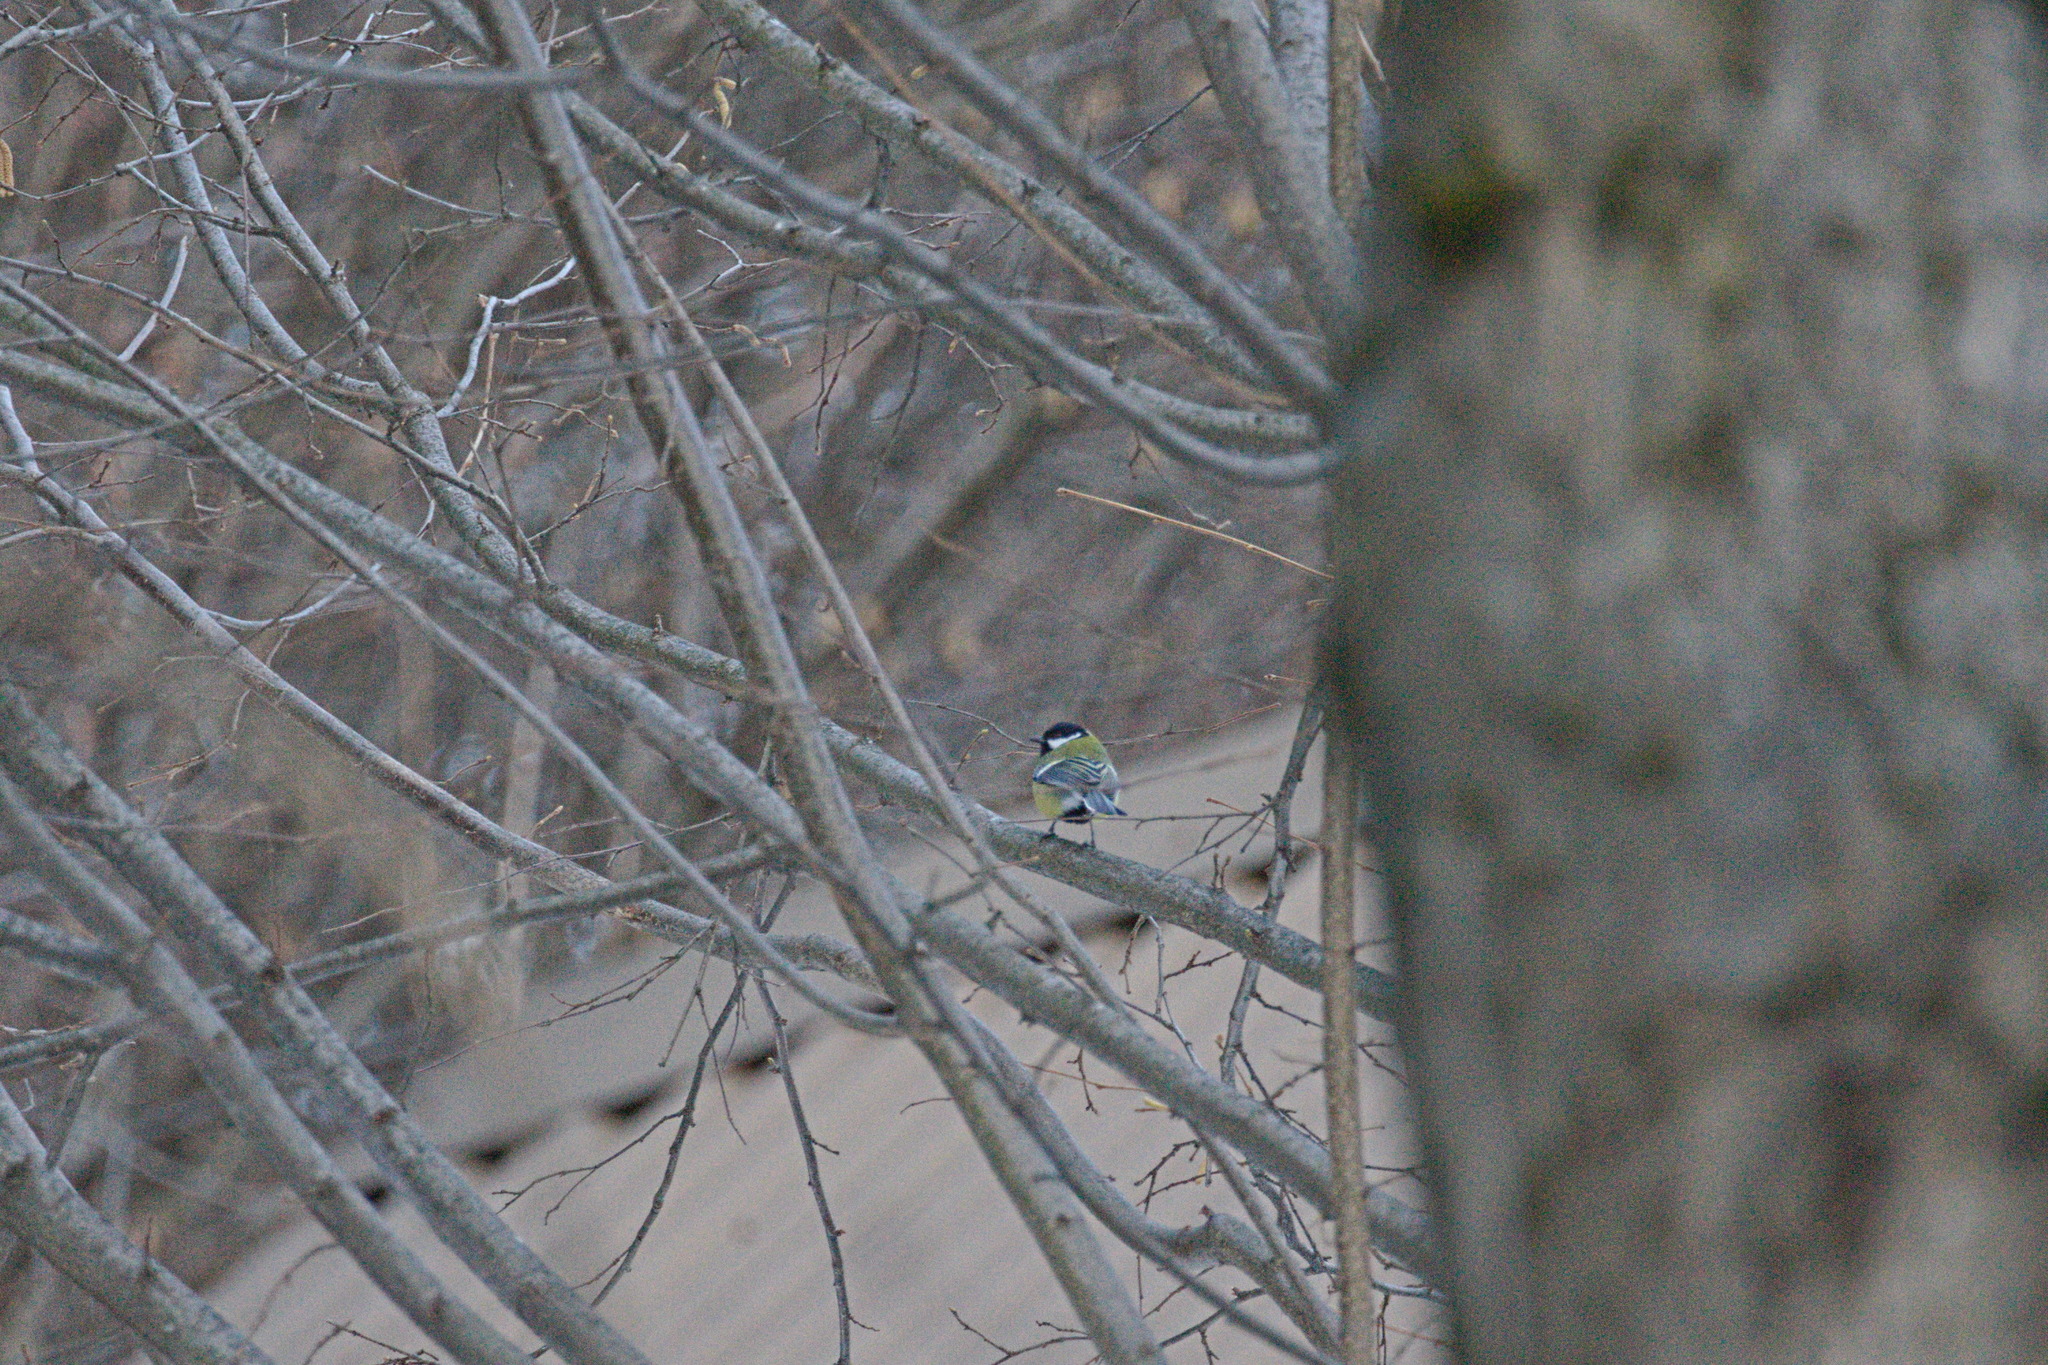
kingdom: Animalia
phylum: Chordata
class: Aves
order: Passeriformes
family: Paridae
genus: Parus
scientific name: Parus major
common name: Great tit
